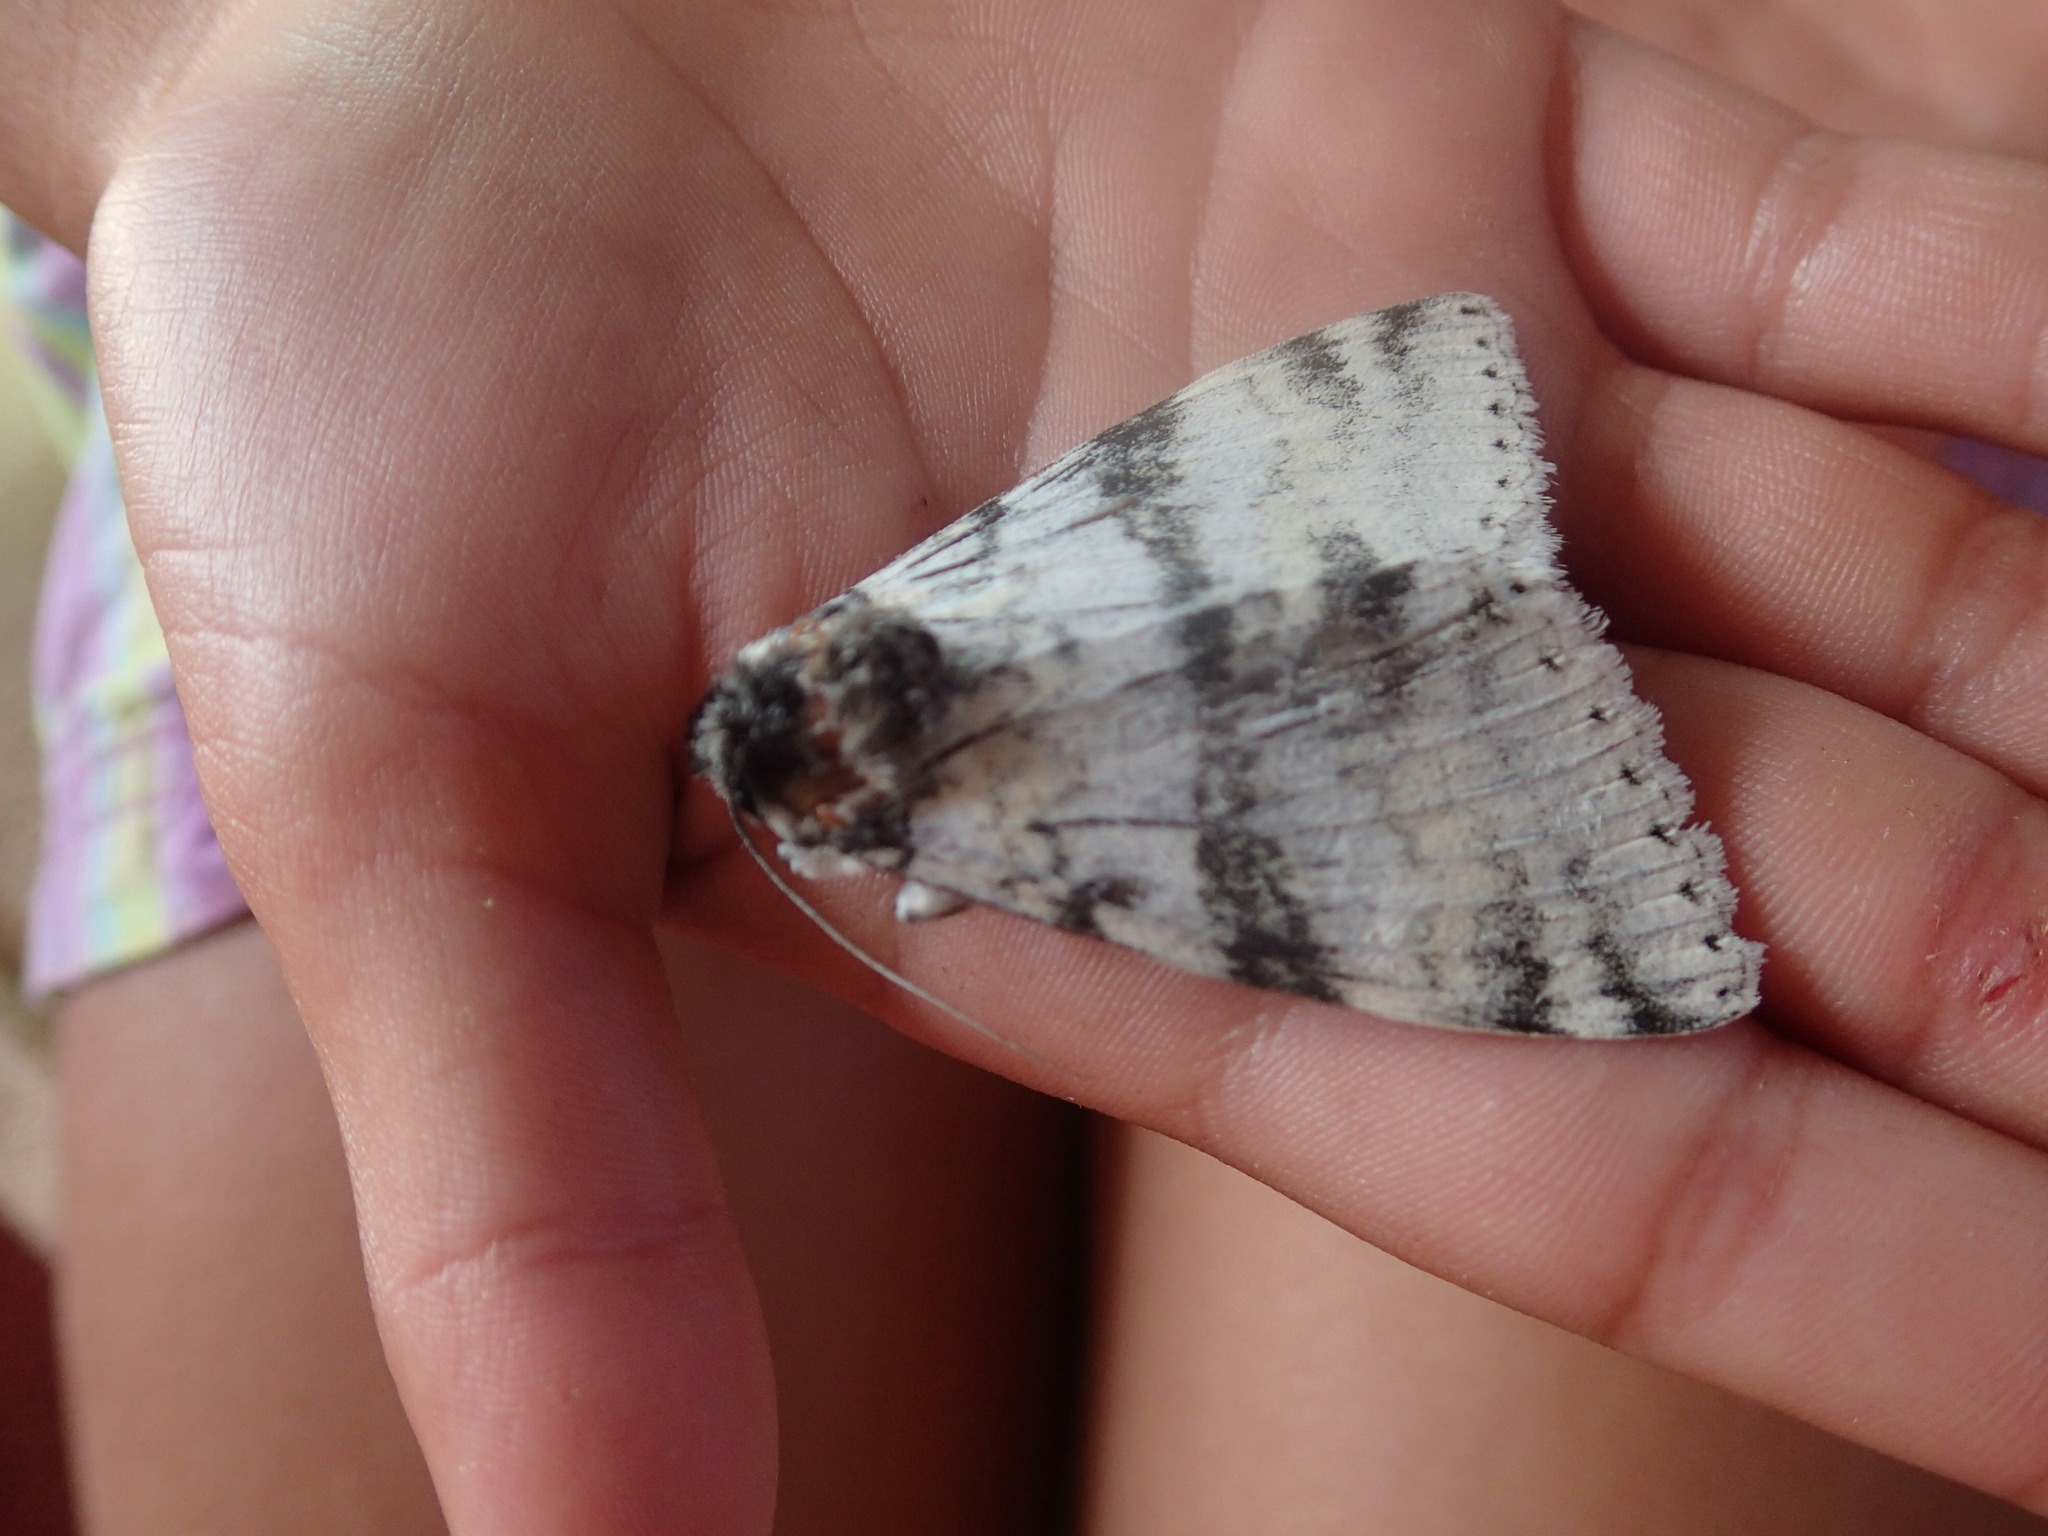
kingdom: Animalia
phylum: Arthropoda
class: Insecta
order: Lepidoptera
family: Erebidae
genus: Catocala
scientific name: Catocala relicta
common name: White underwing
